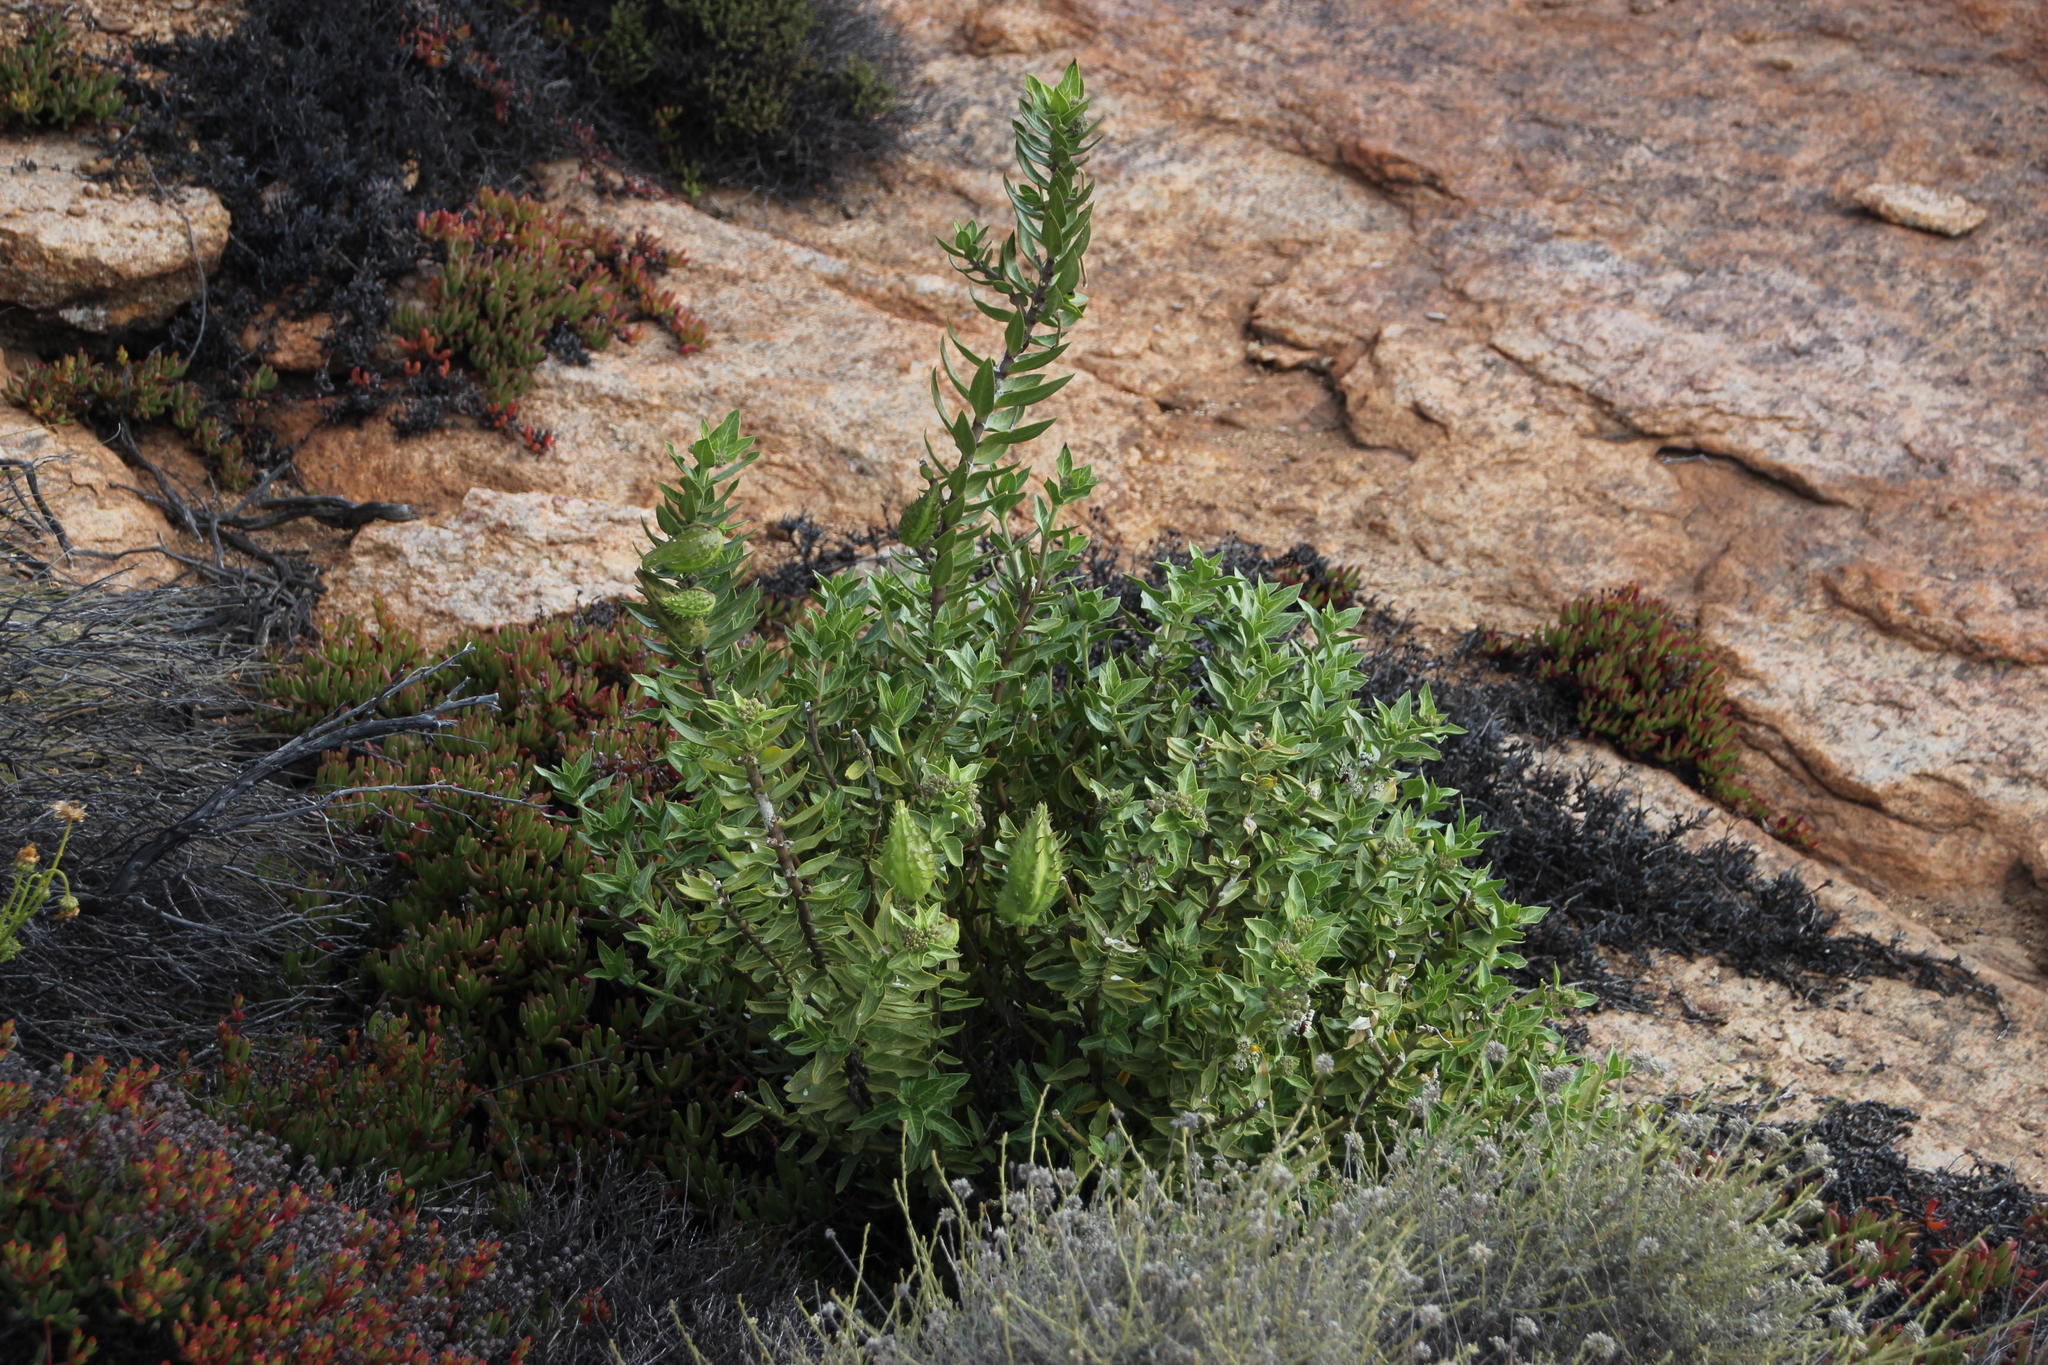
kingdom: Plantae
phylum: Tracheophyta
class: Magnoliopsida
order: Gentianales
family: Apocynaceae
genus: Gomphocarpus
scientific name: Gomphocarpus cancellatus
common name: Wild cotton
